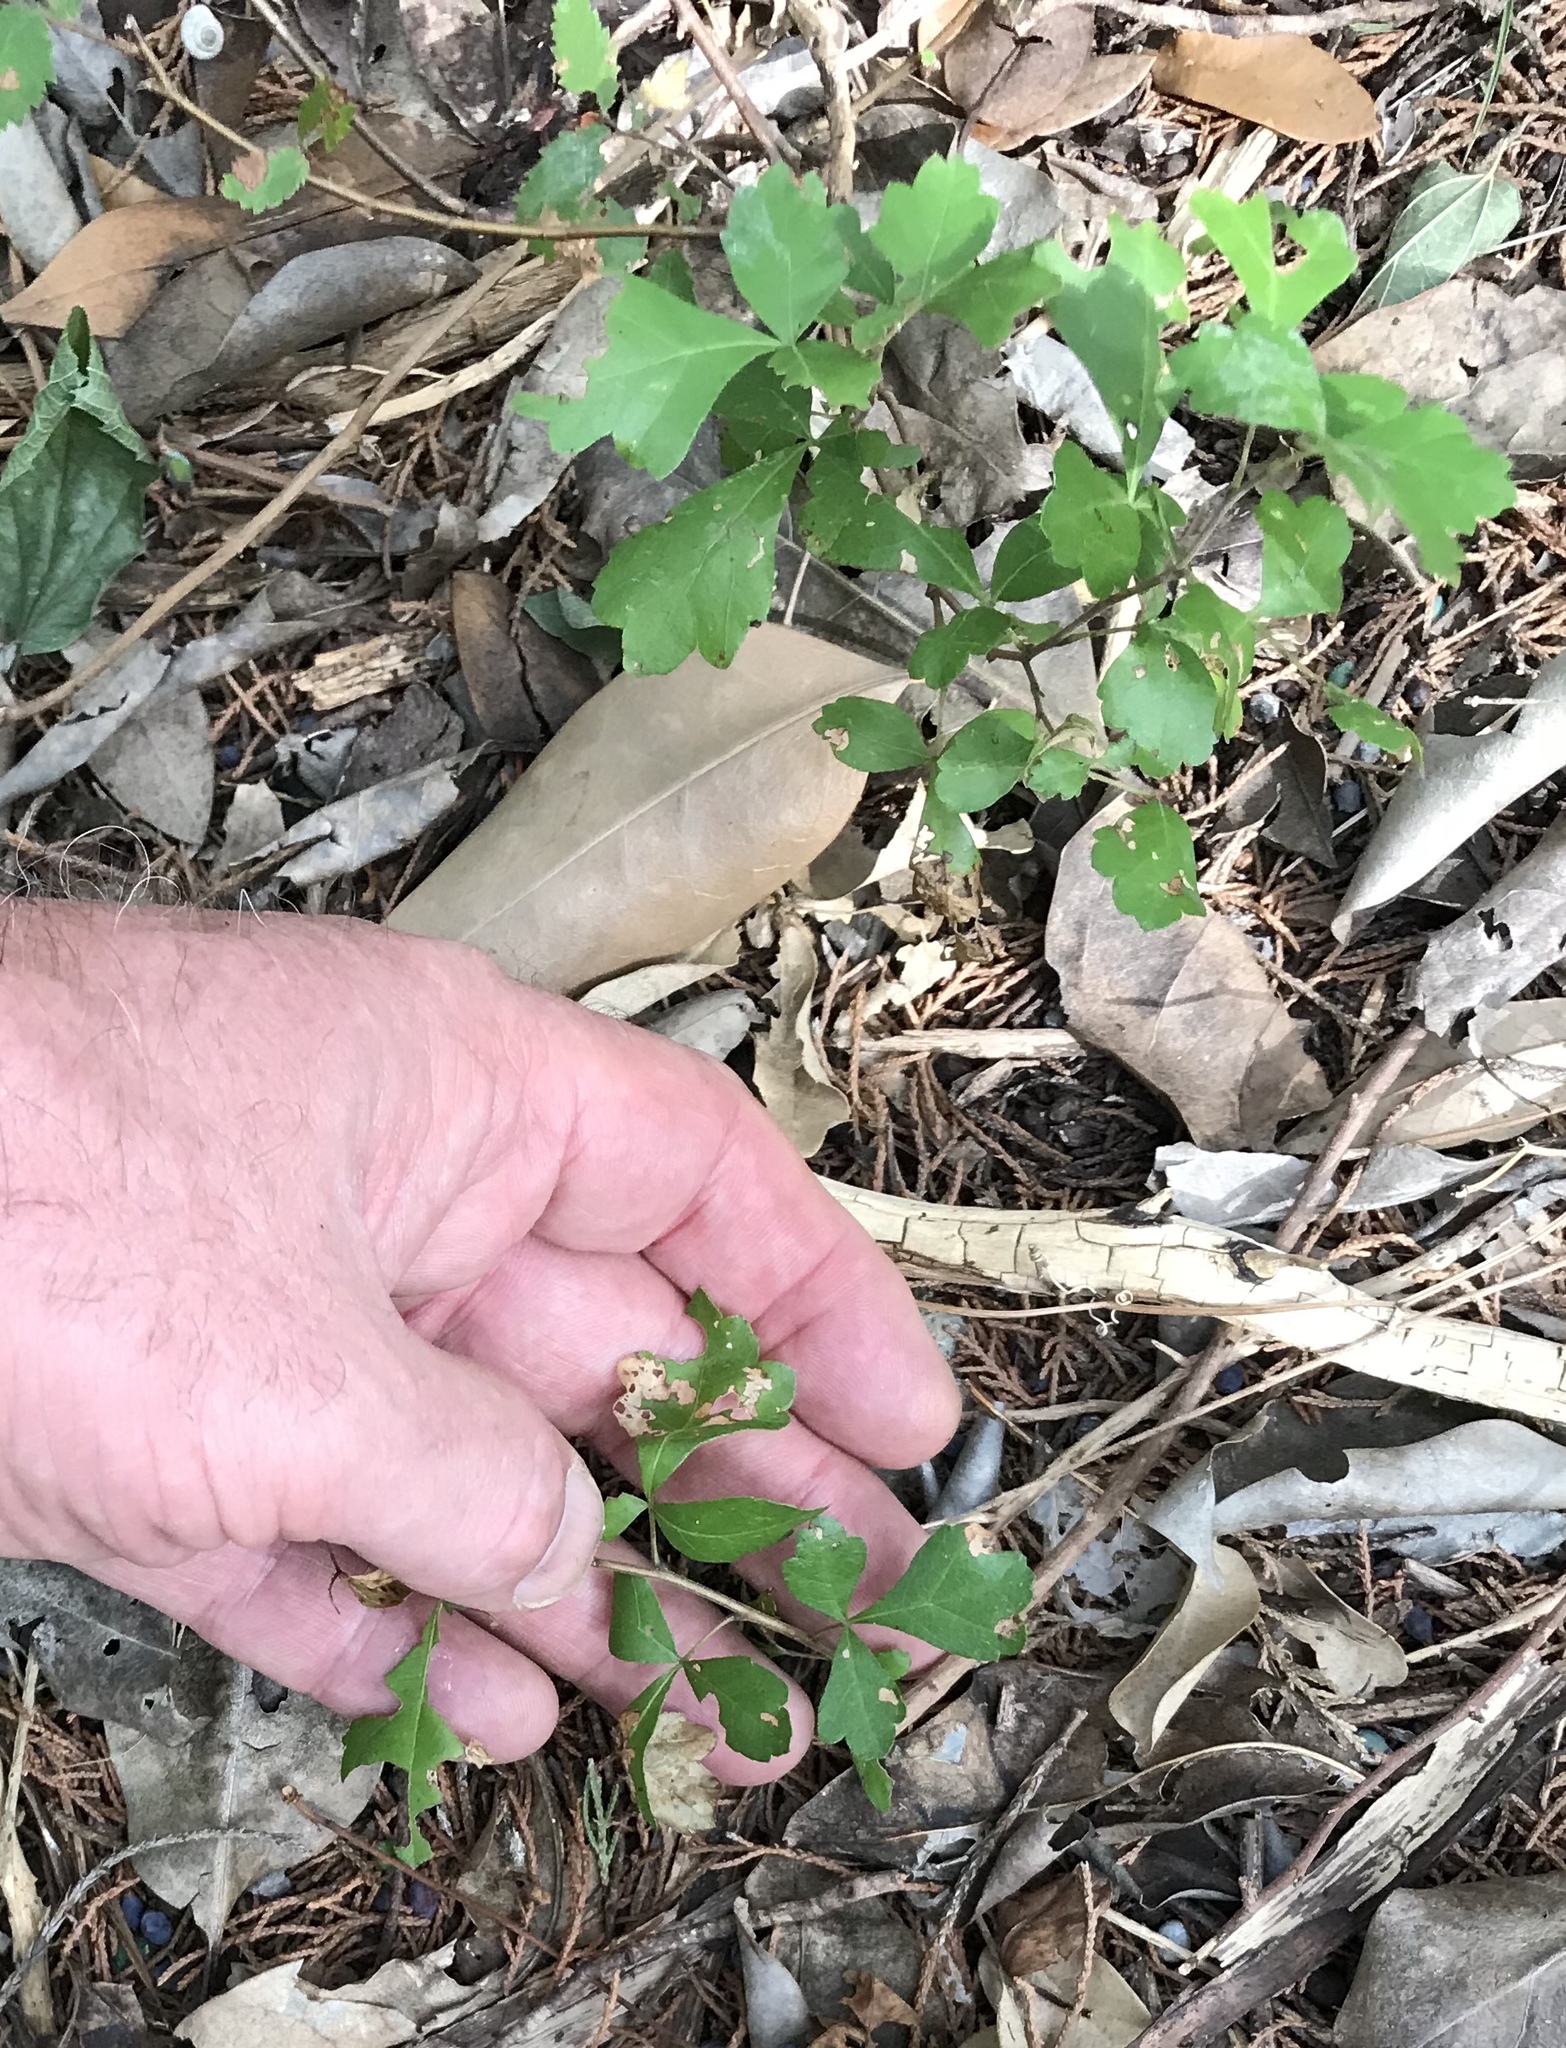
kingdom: Plantae
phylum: Tracheophyta
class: Magnoliopsida
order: Sapindales
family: Anacardiaceae
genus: Rhus
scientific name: Rhus aromatica
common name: Aromatic sumac
